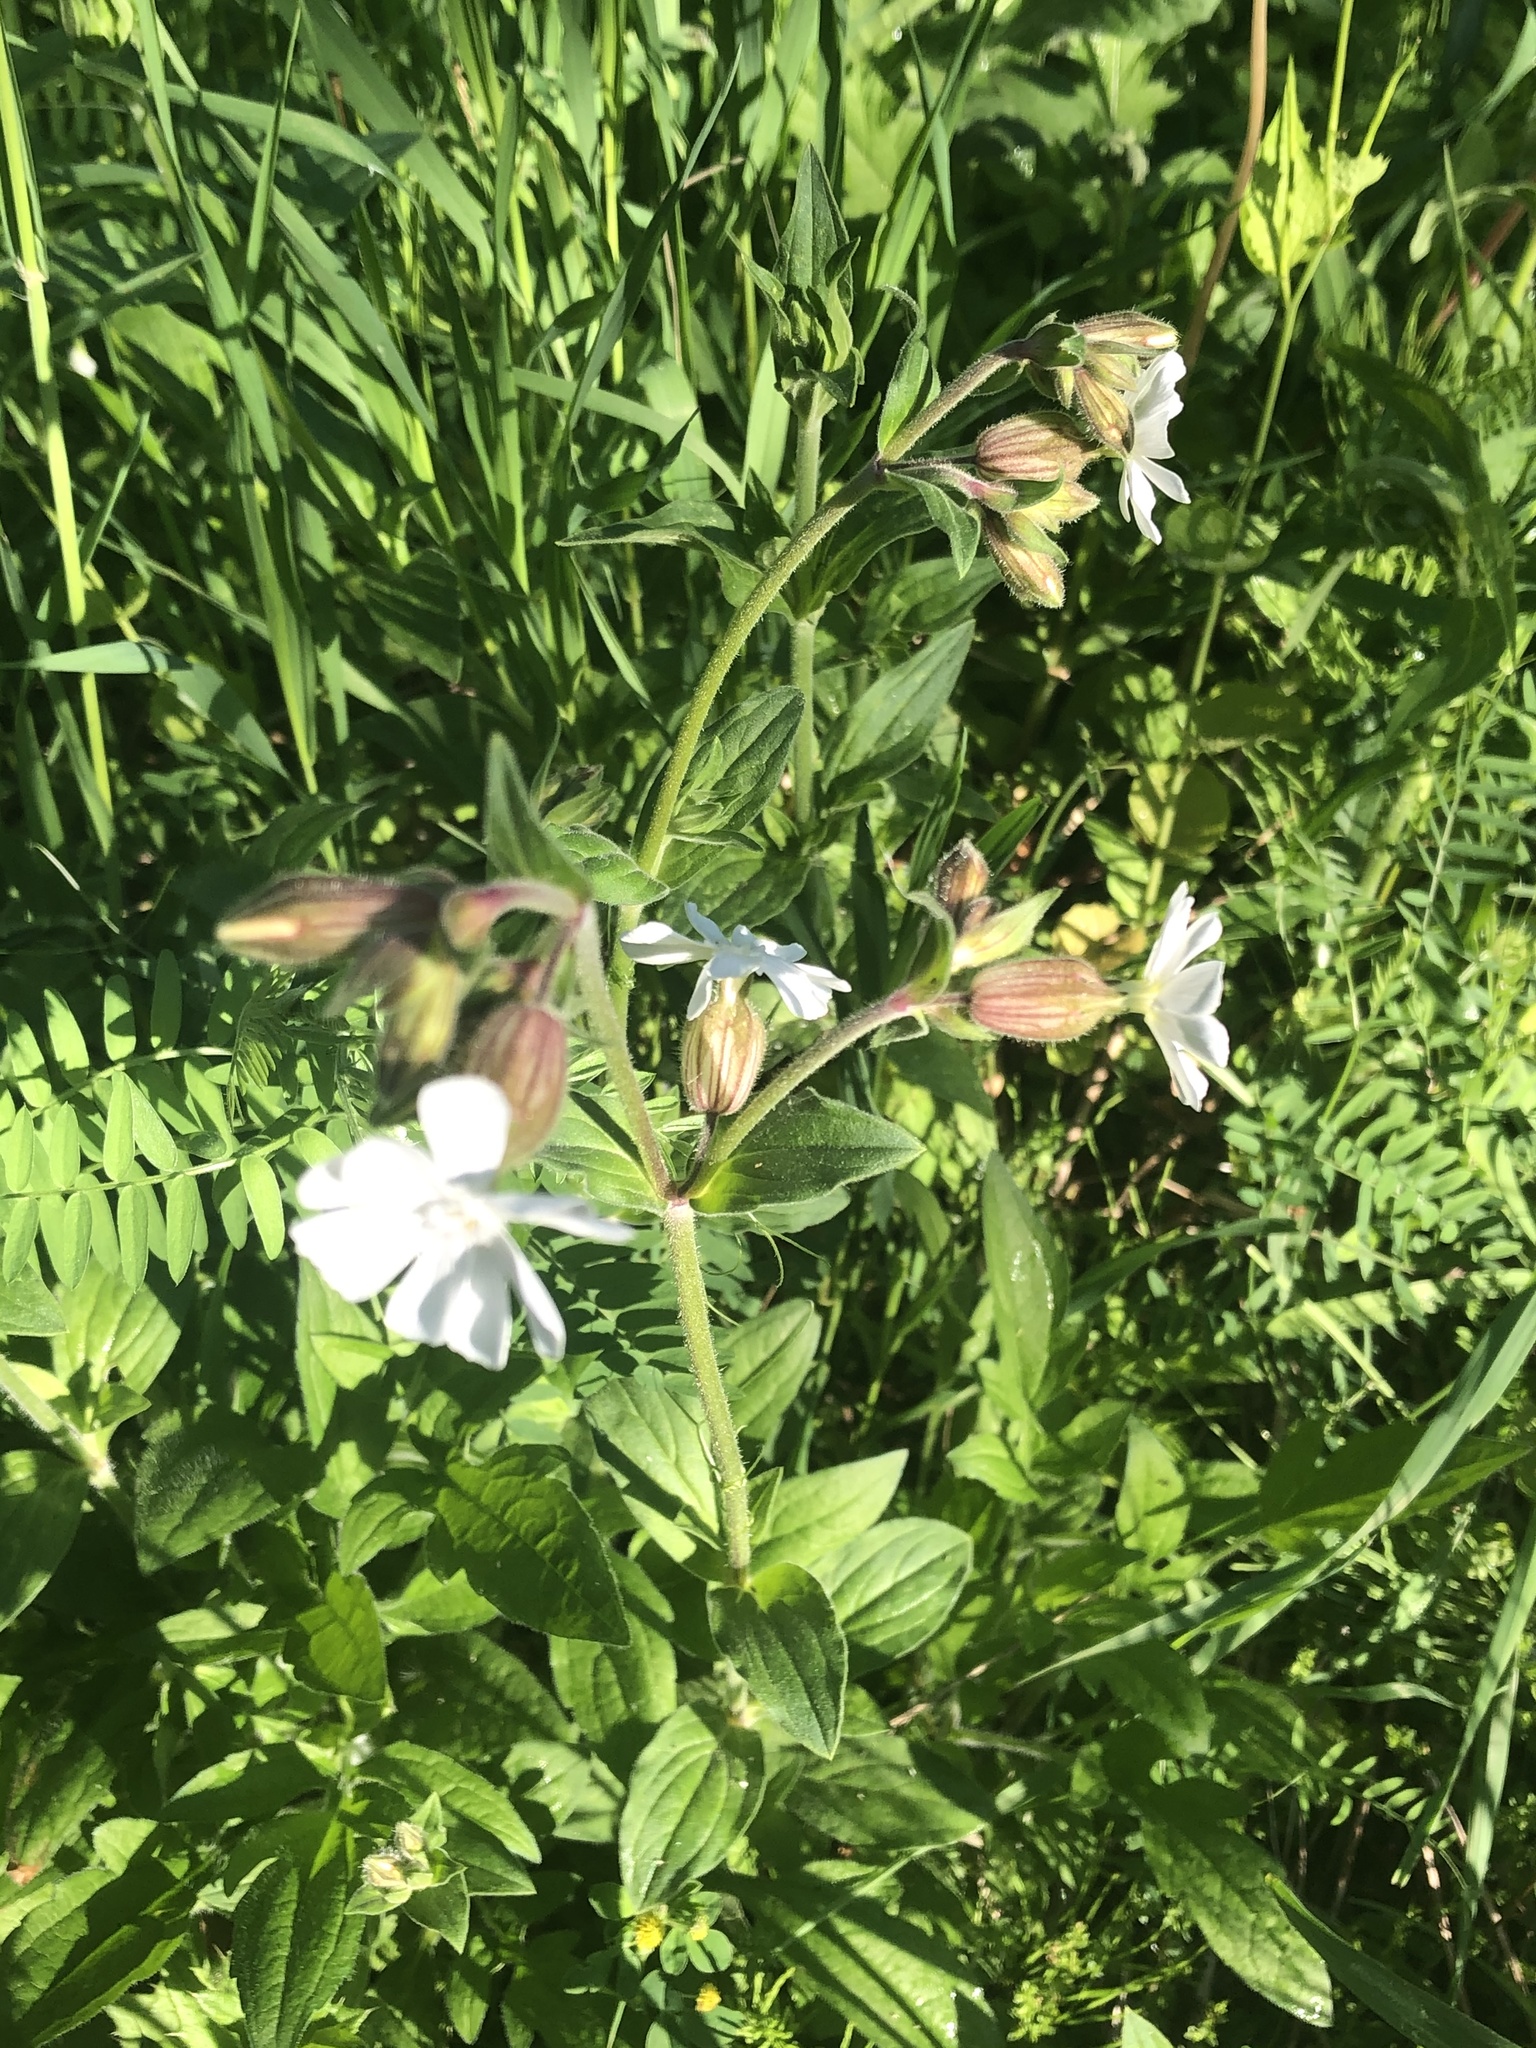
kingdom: Plantae
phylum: Tracheophyta
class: Magnoliopsida
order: Caryophyllales
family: Caryophyllaceae
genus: Silene
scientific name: Silene latifolia
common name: White campion
